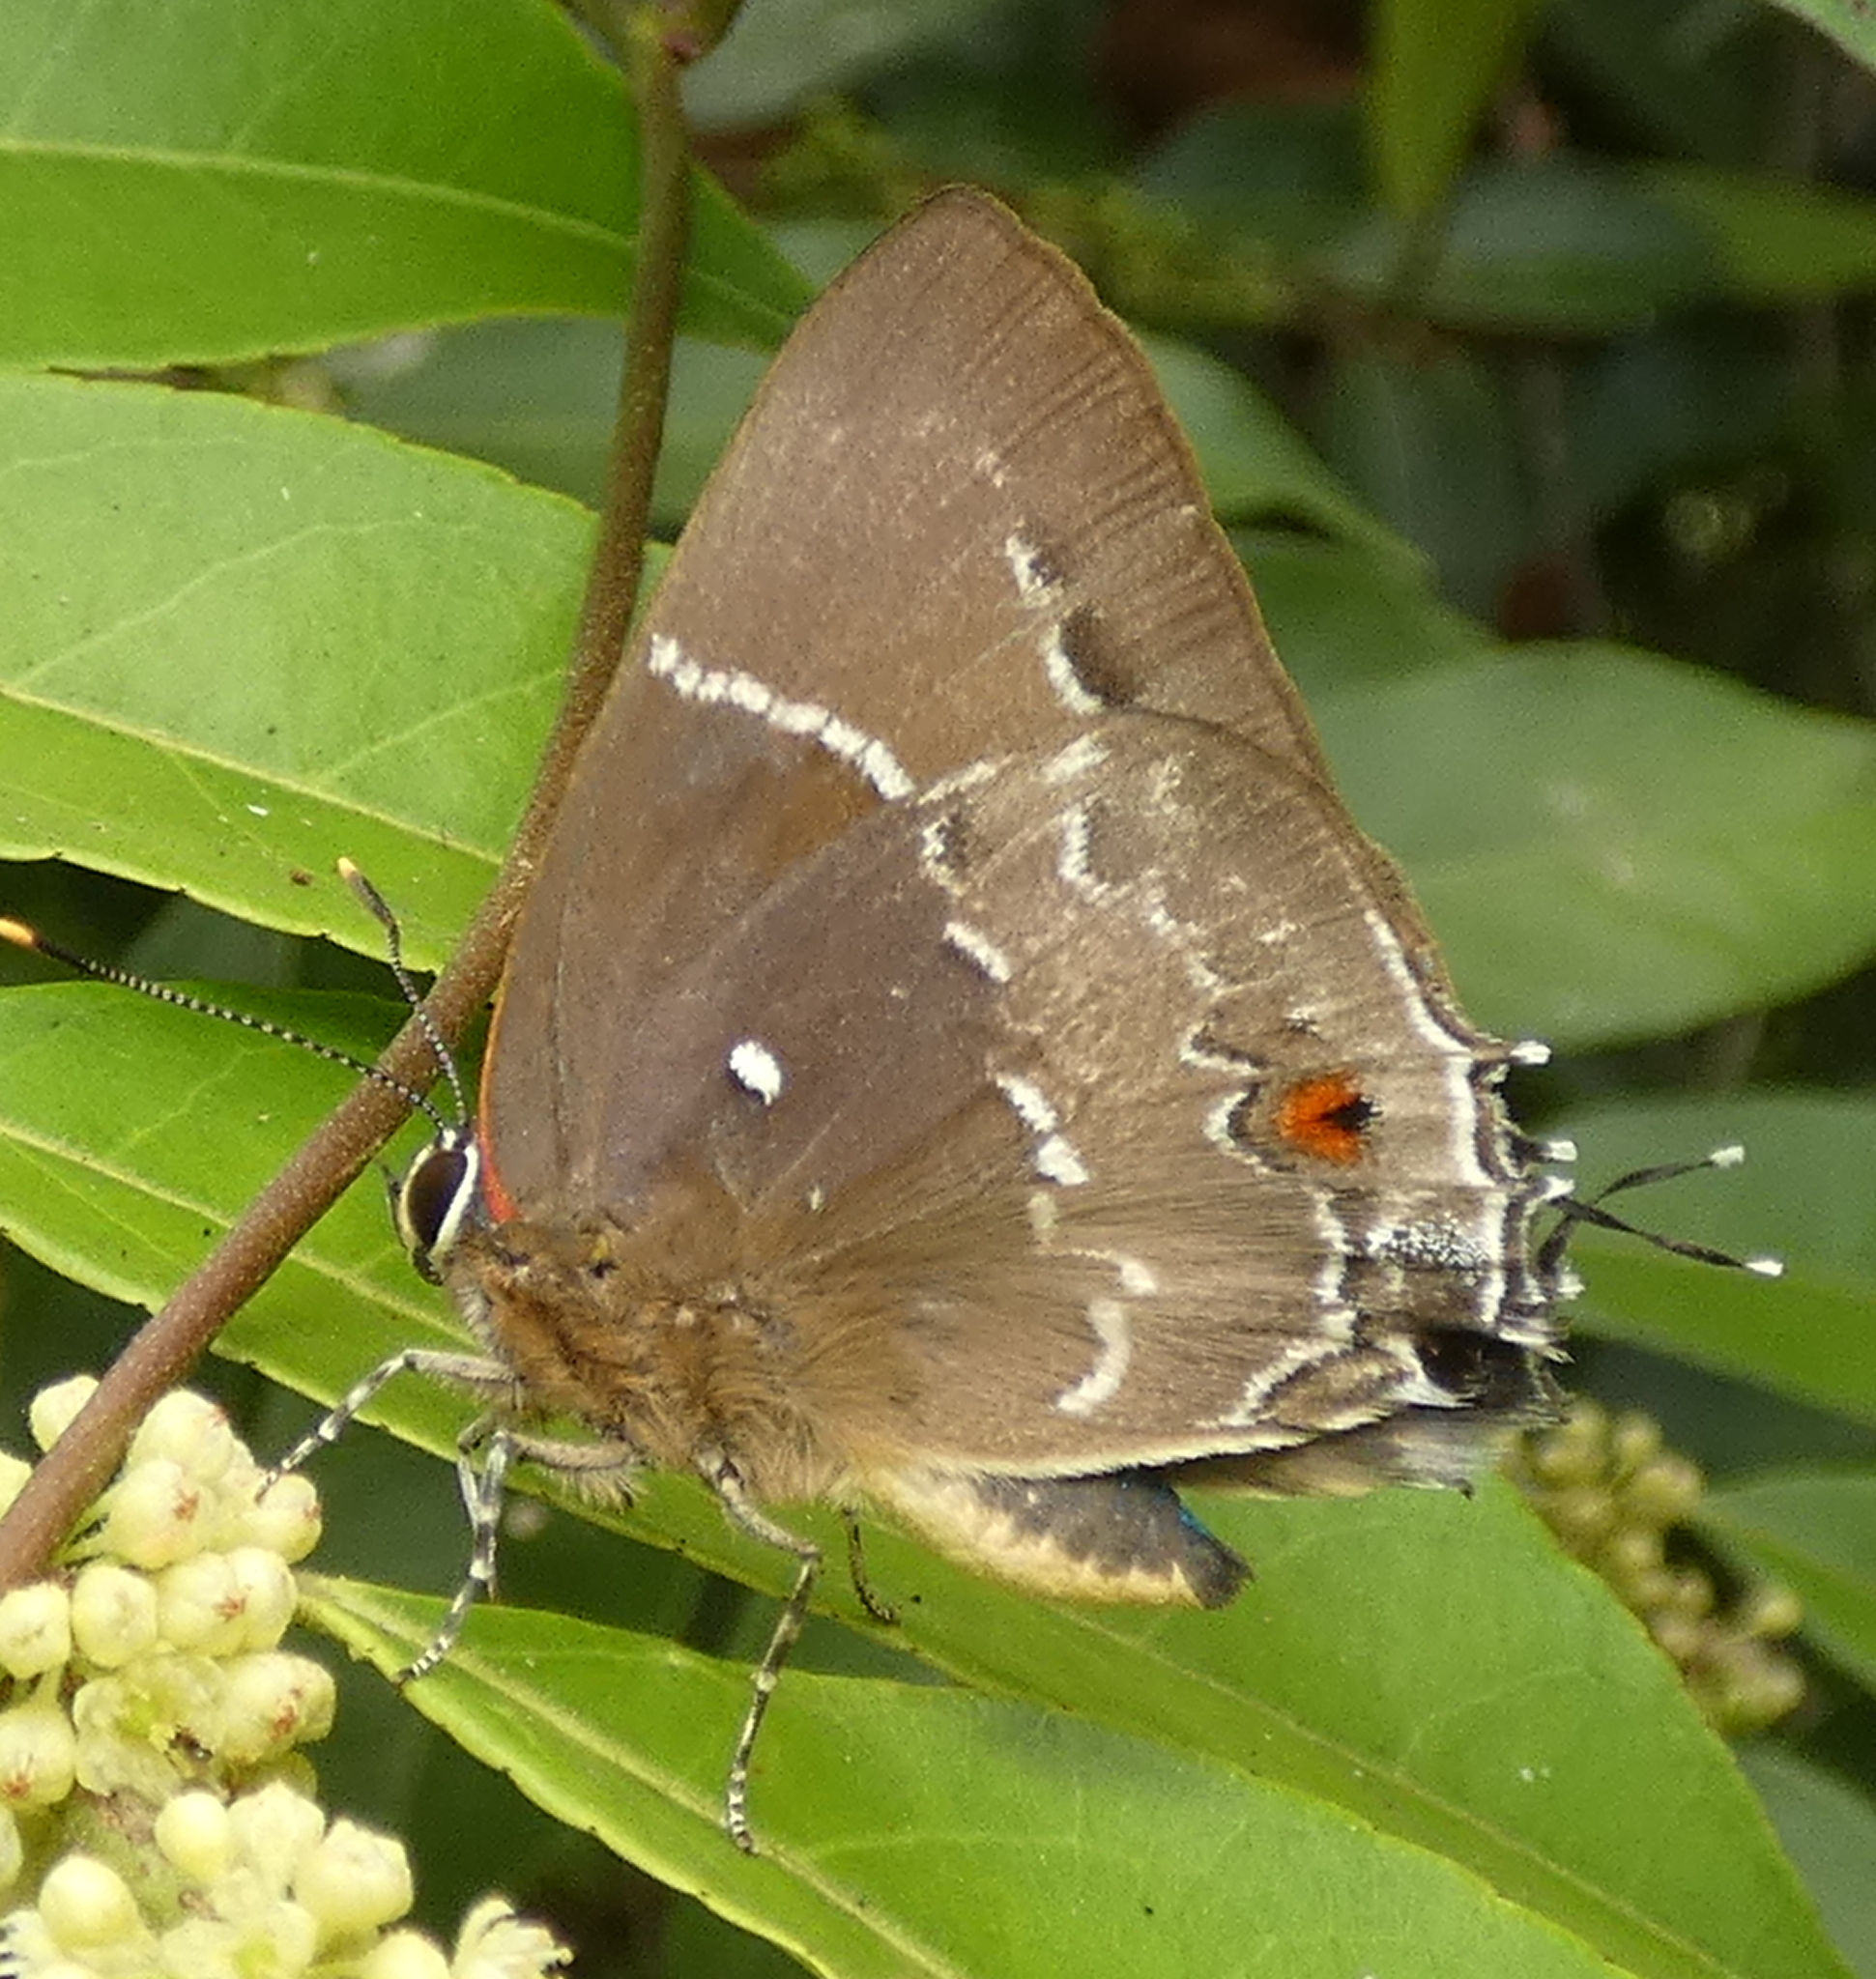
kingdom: Animalia
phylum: Arthropoda
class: Insecta
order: Lepidoptera
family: Lycaenidae
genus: Thecla
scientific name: Thecla phoenissa
